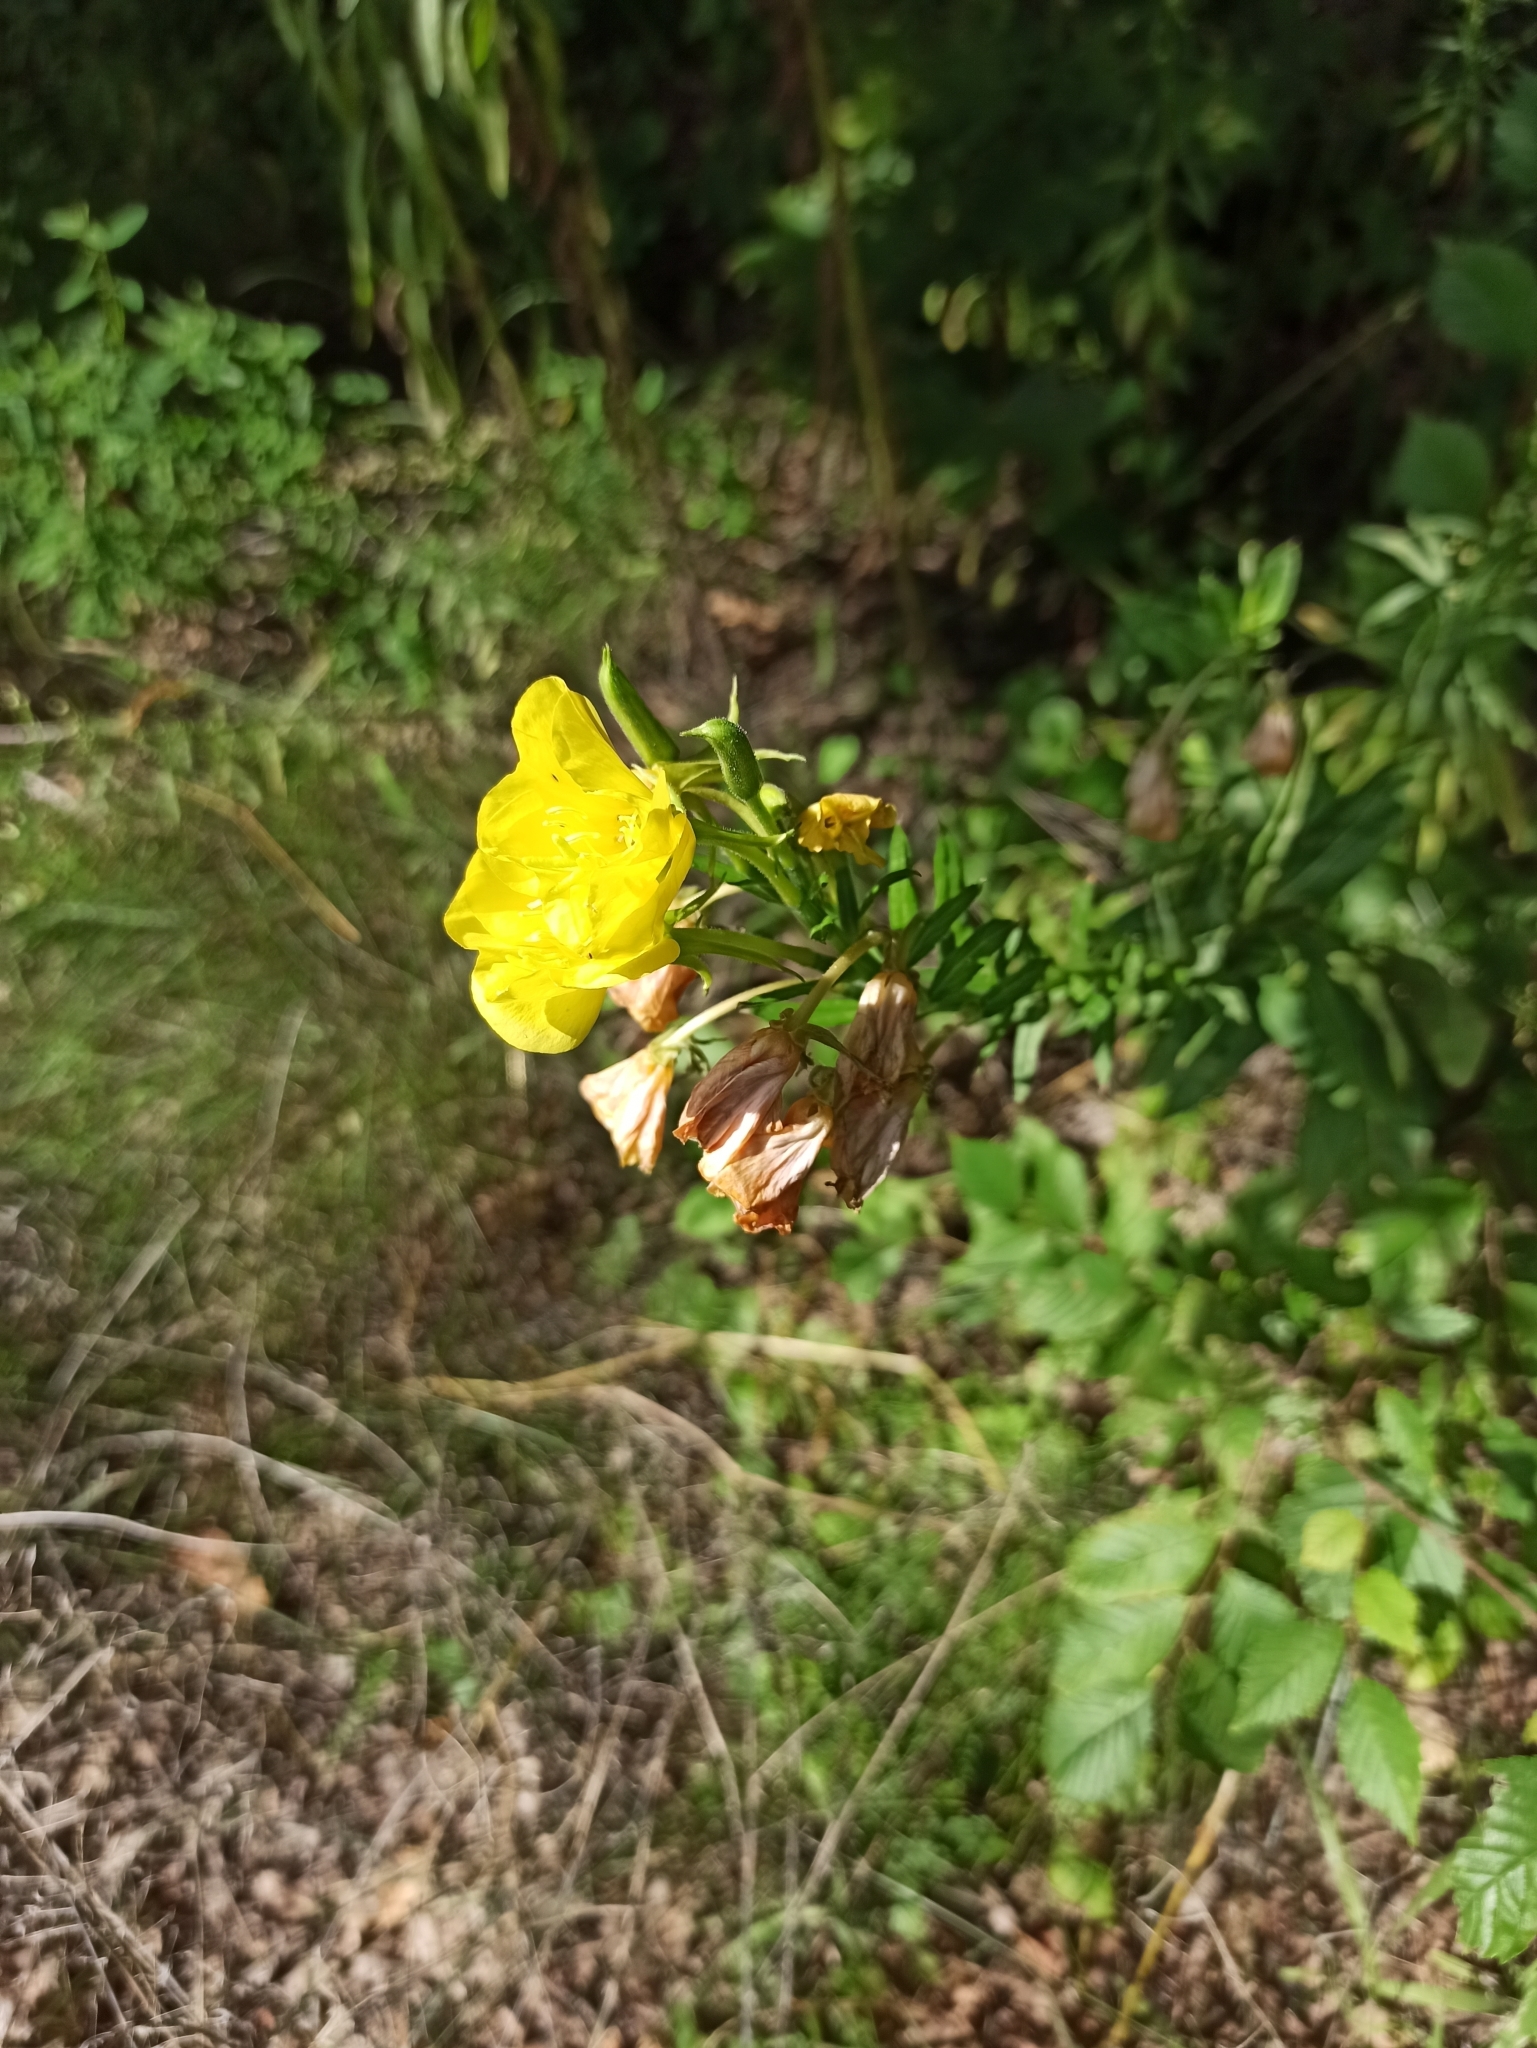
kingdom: Plantae
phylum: Tracheophyta
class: Magnoliopsida
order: Myrtales
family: Onagraceae
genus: Oenothera
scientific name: Oenothera biennis
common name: Common evening-primrose
